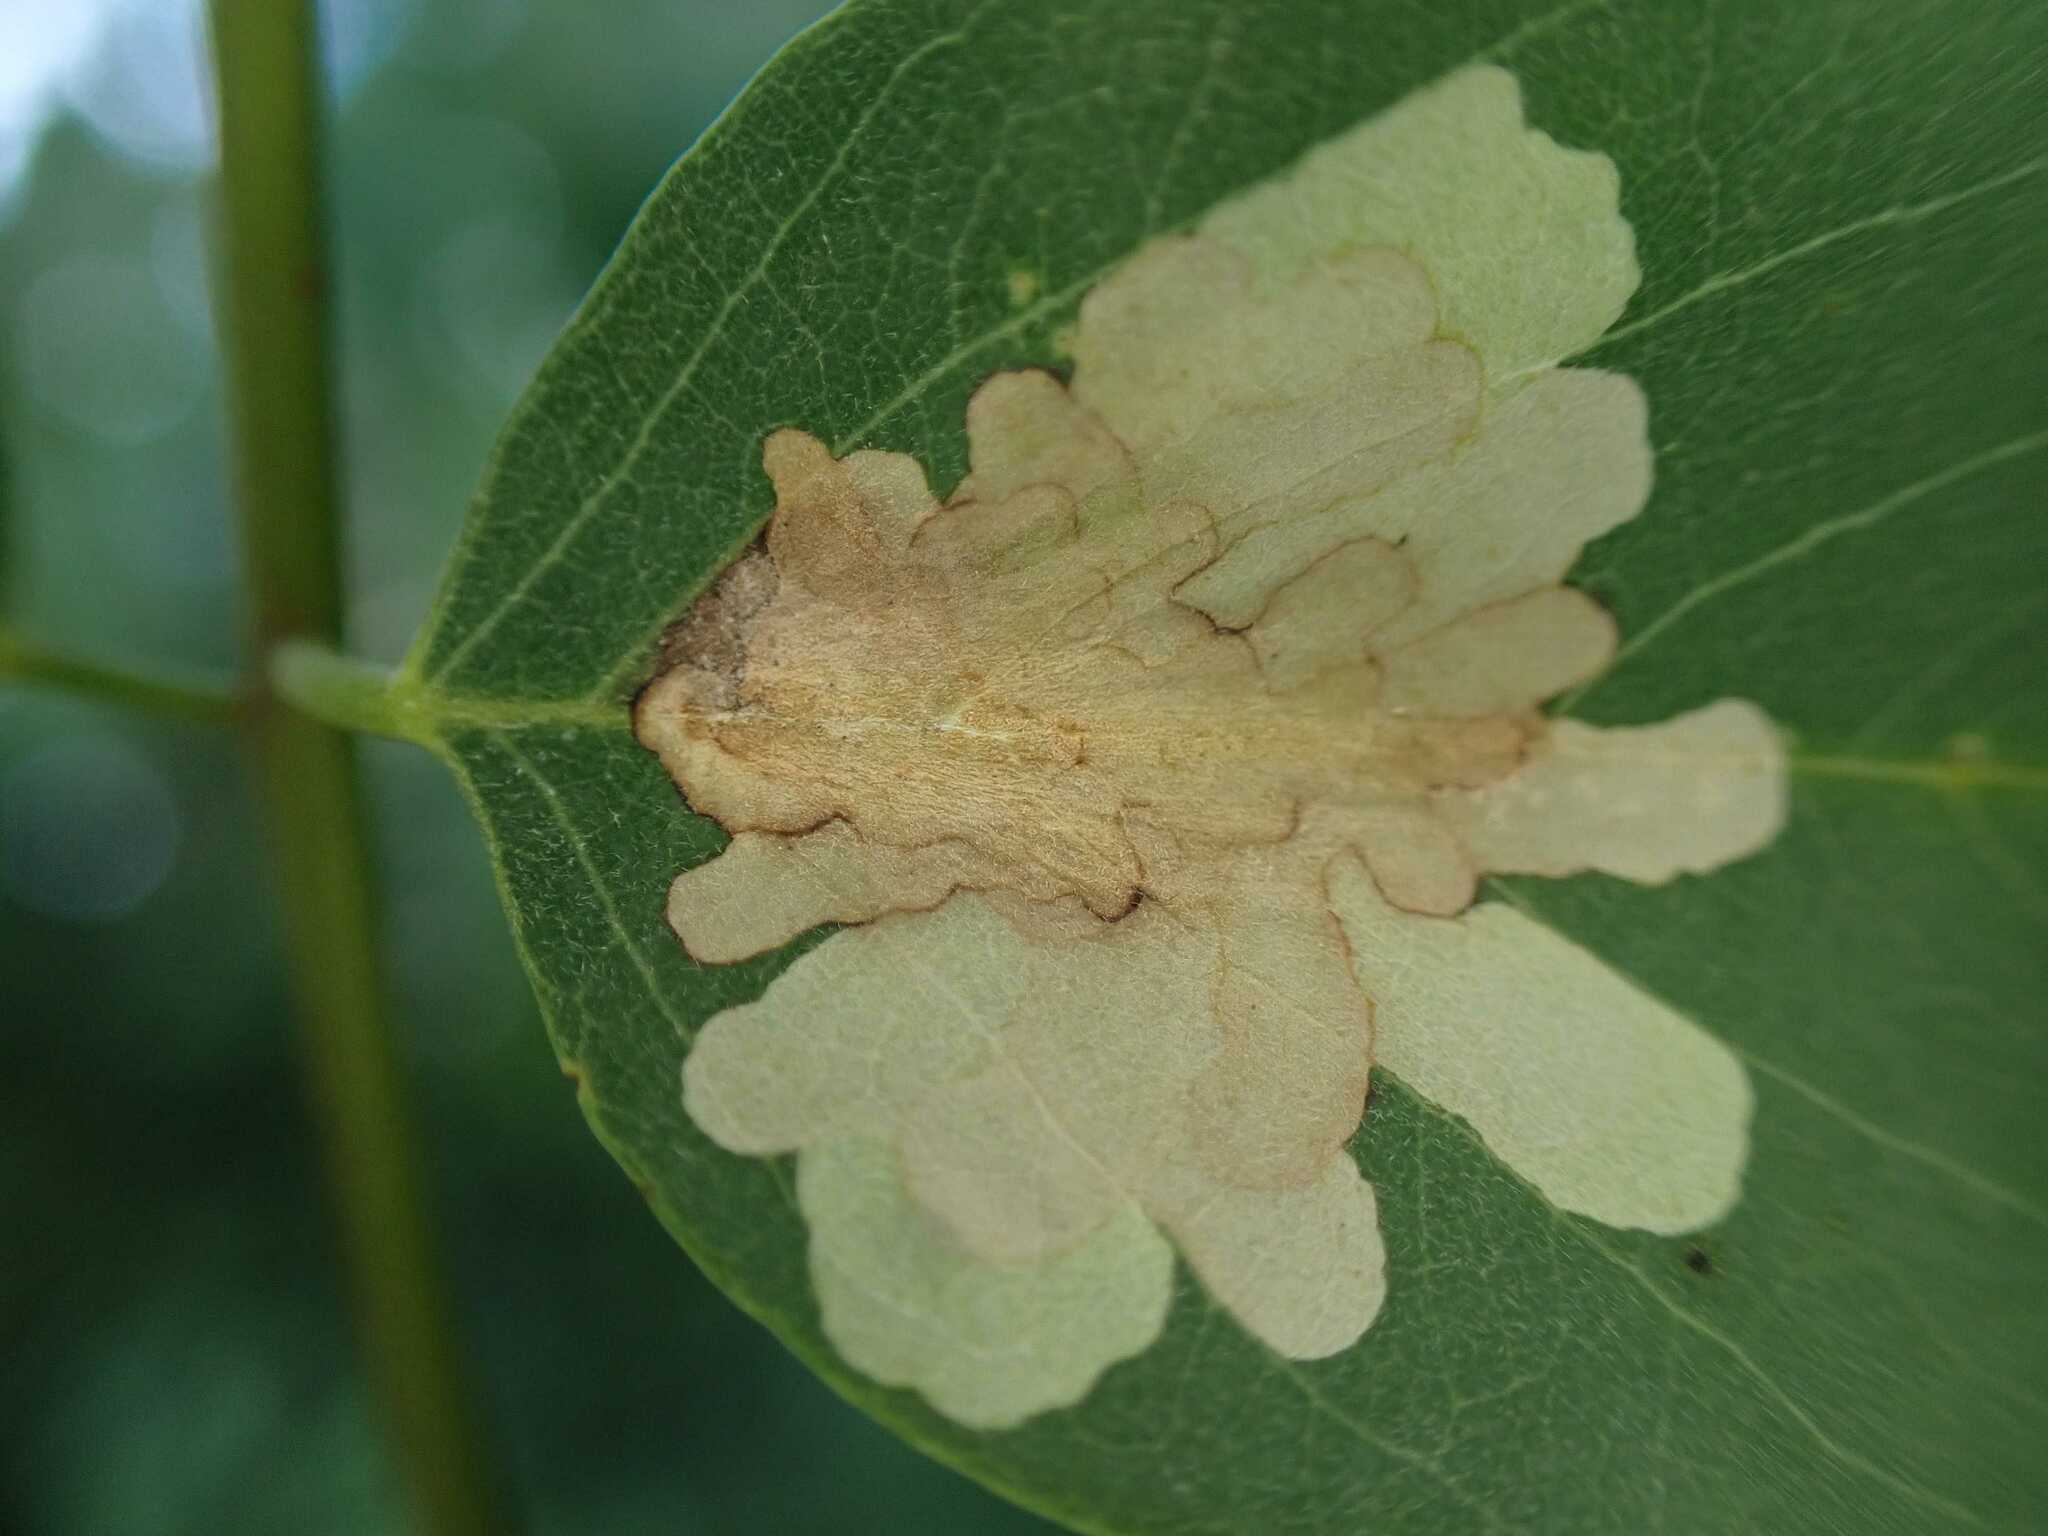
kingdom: Animalia
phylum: Arthropoda
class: Insecta
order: Lepidoptera
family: Gracillariidae
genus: Parectopa
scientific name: Parectopa robiniella
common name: Locust digitate leafminer
